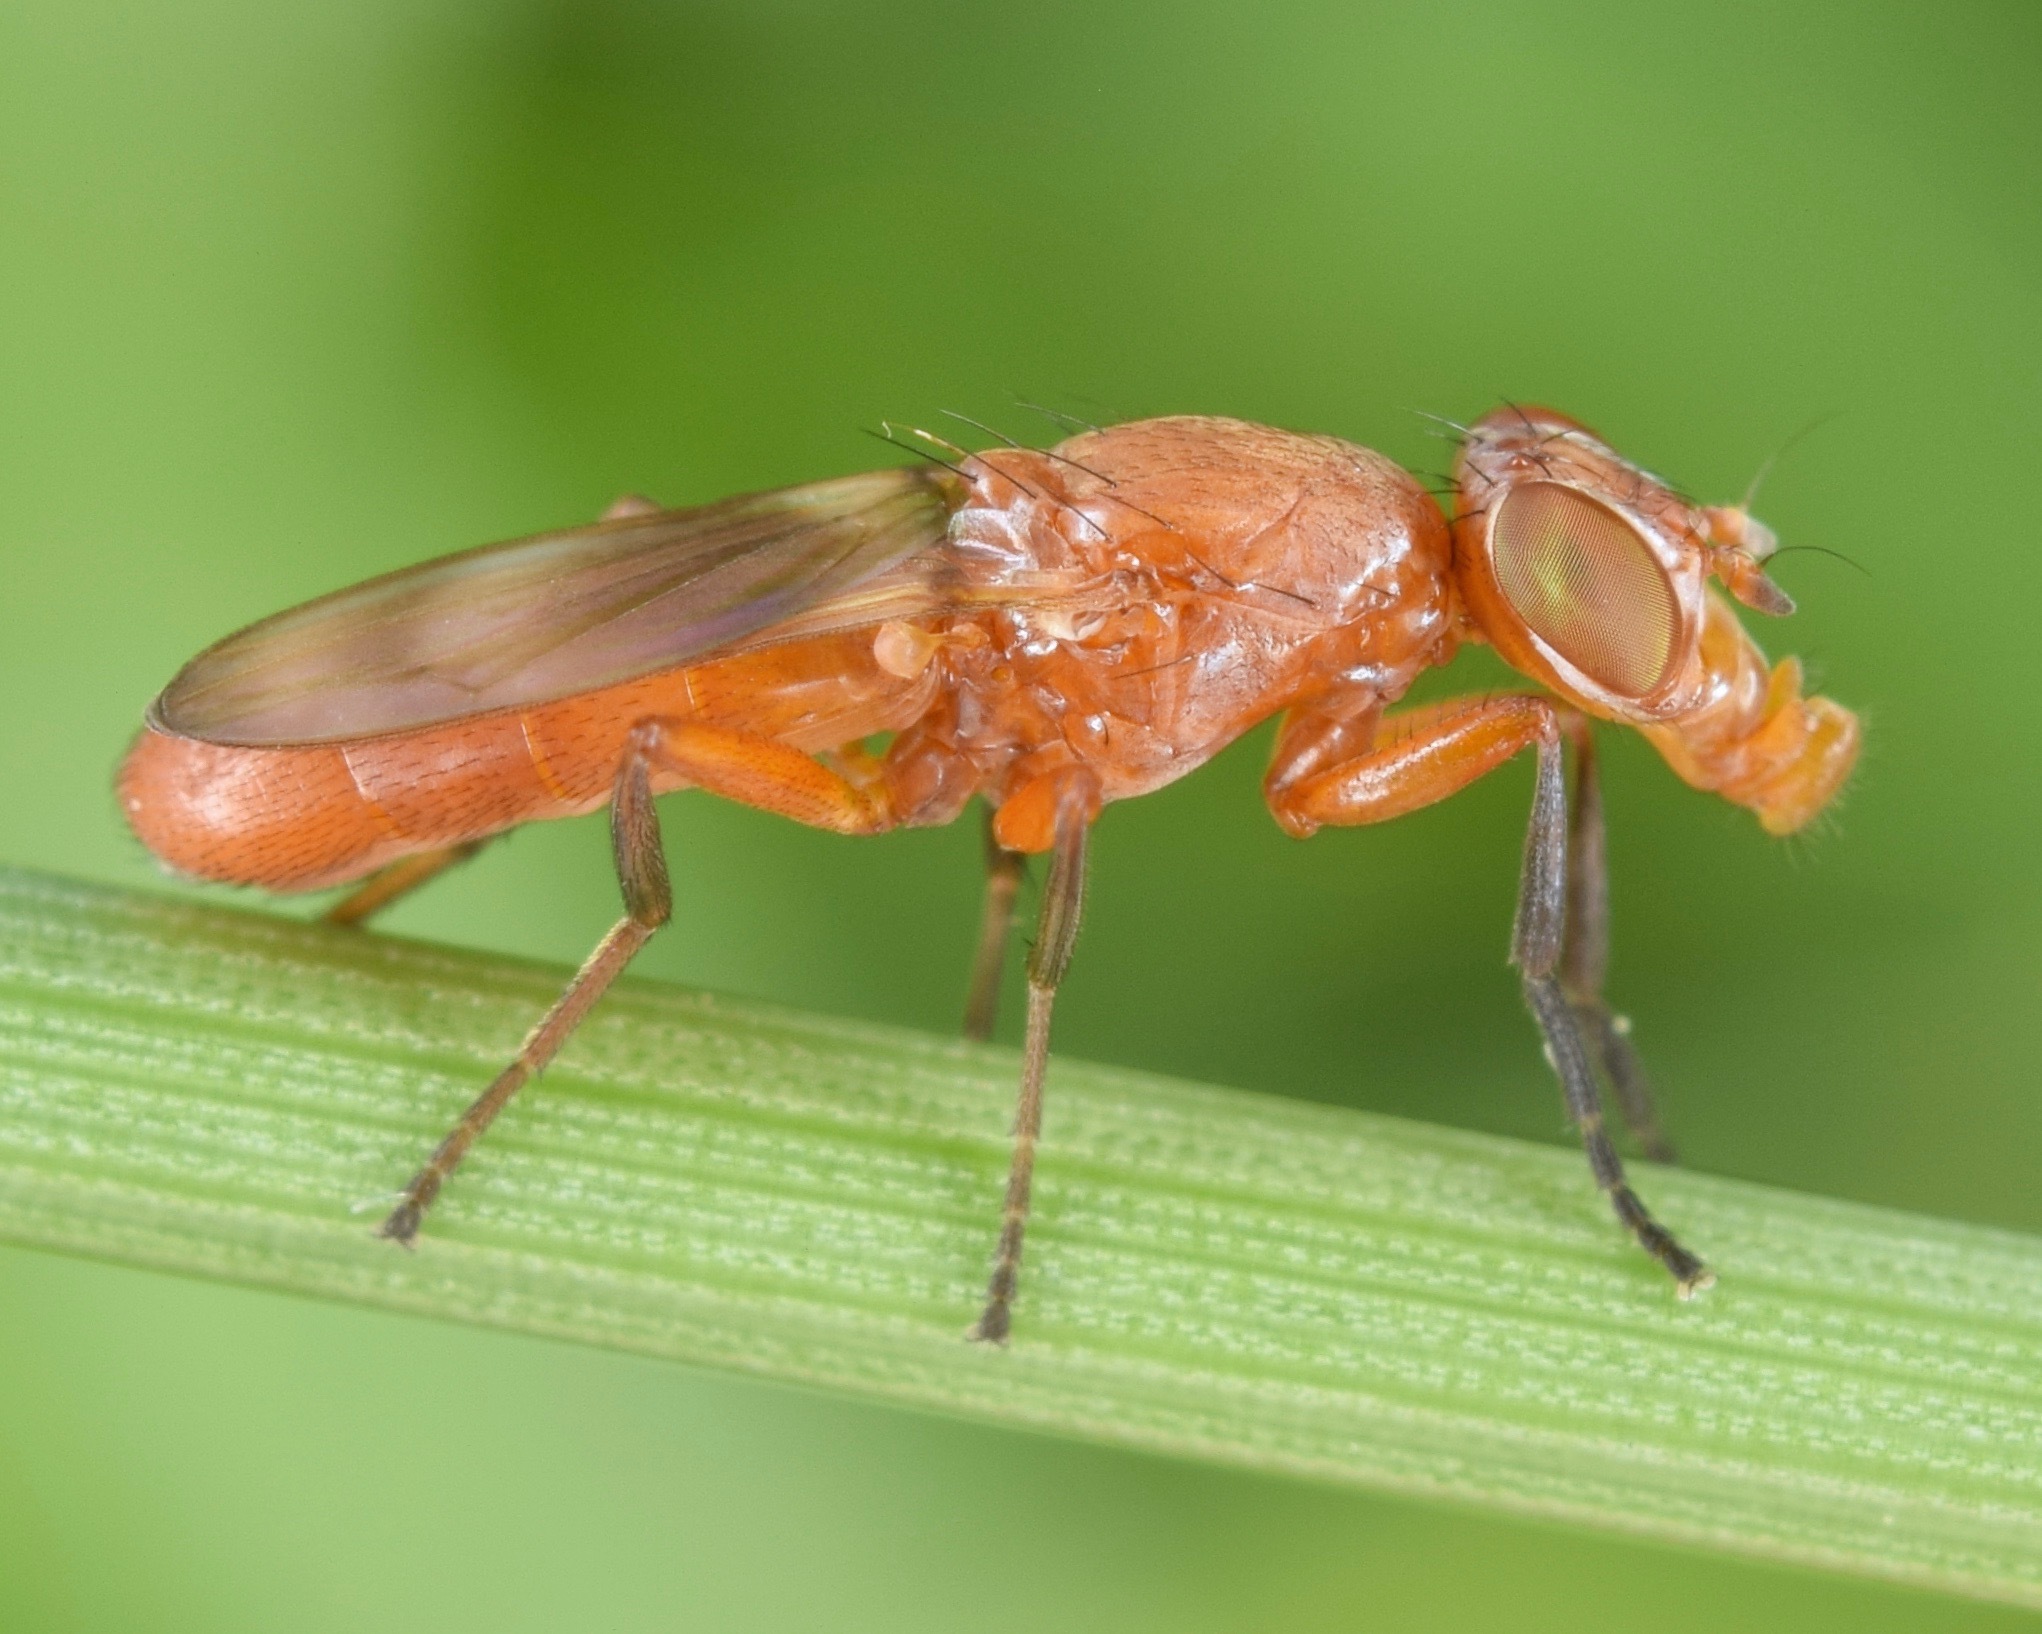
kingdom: Animalia
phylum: Arthropoda
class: Insecta
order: Diptera
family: Ulidiidae
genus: Zacompsia
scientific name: Zacompsia fulva
